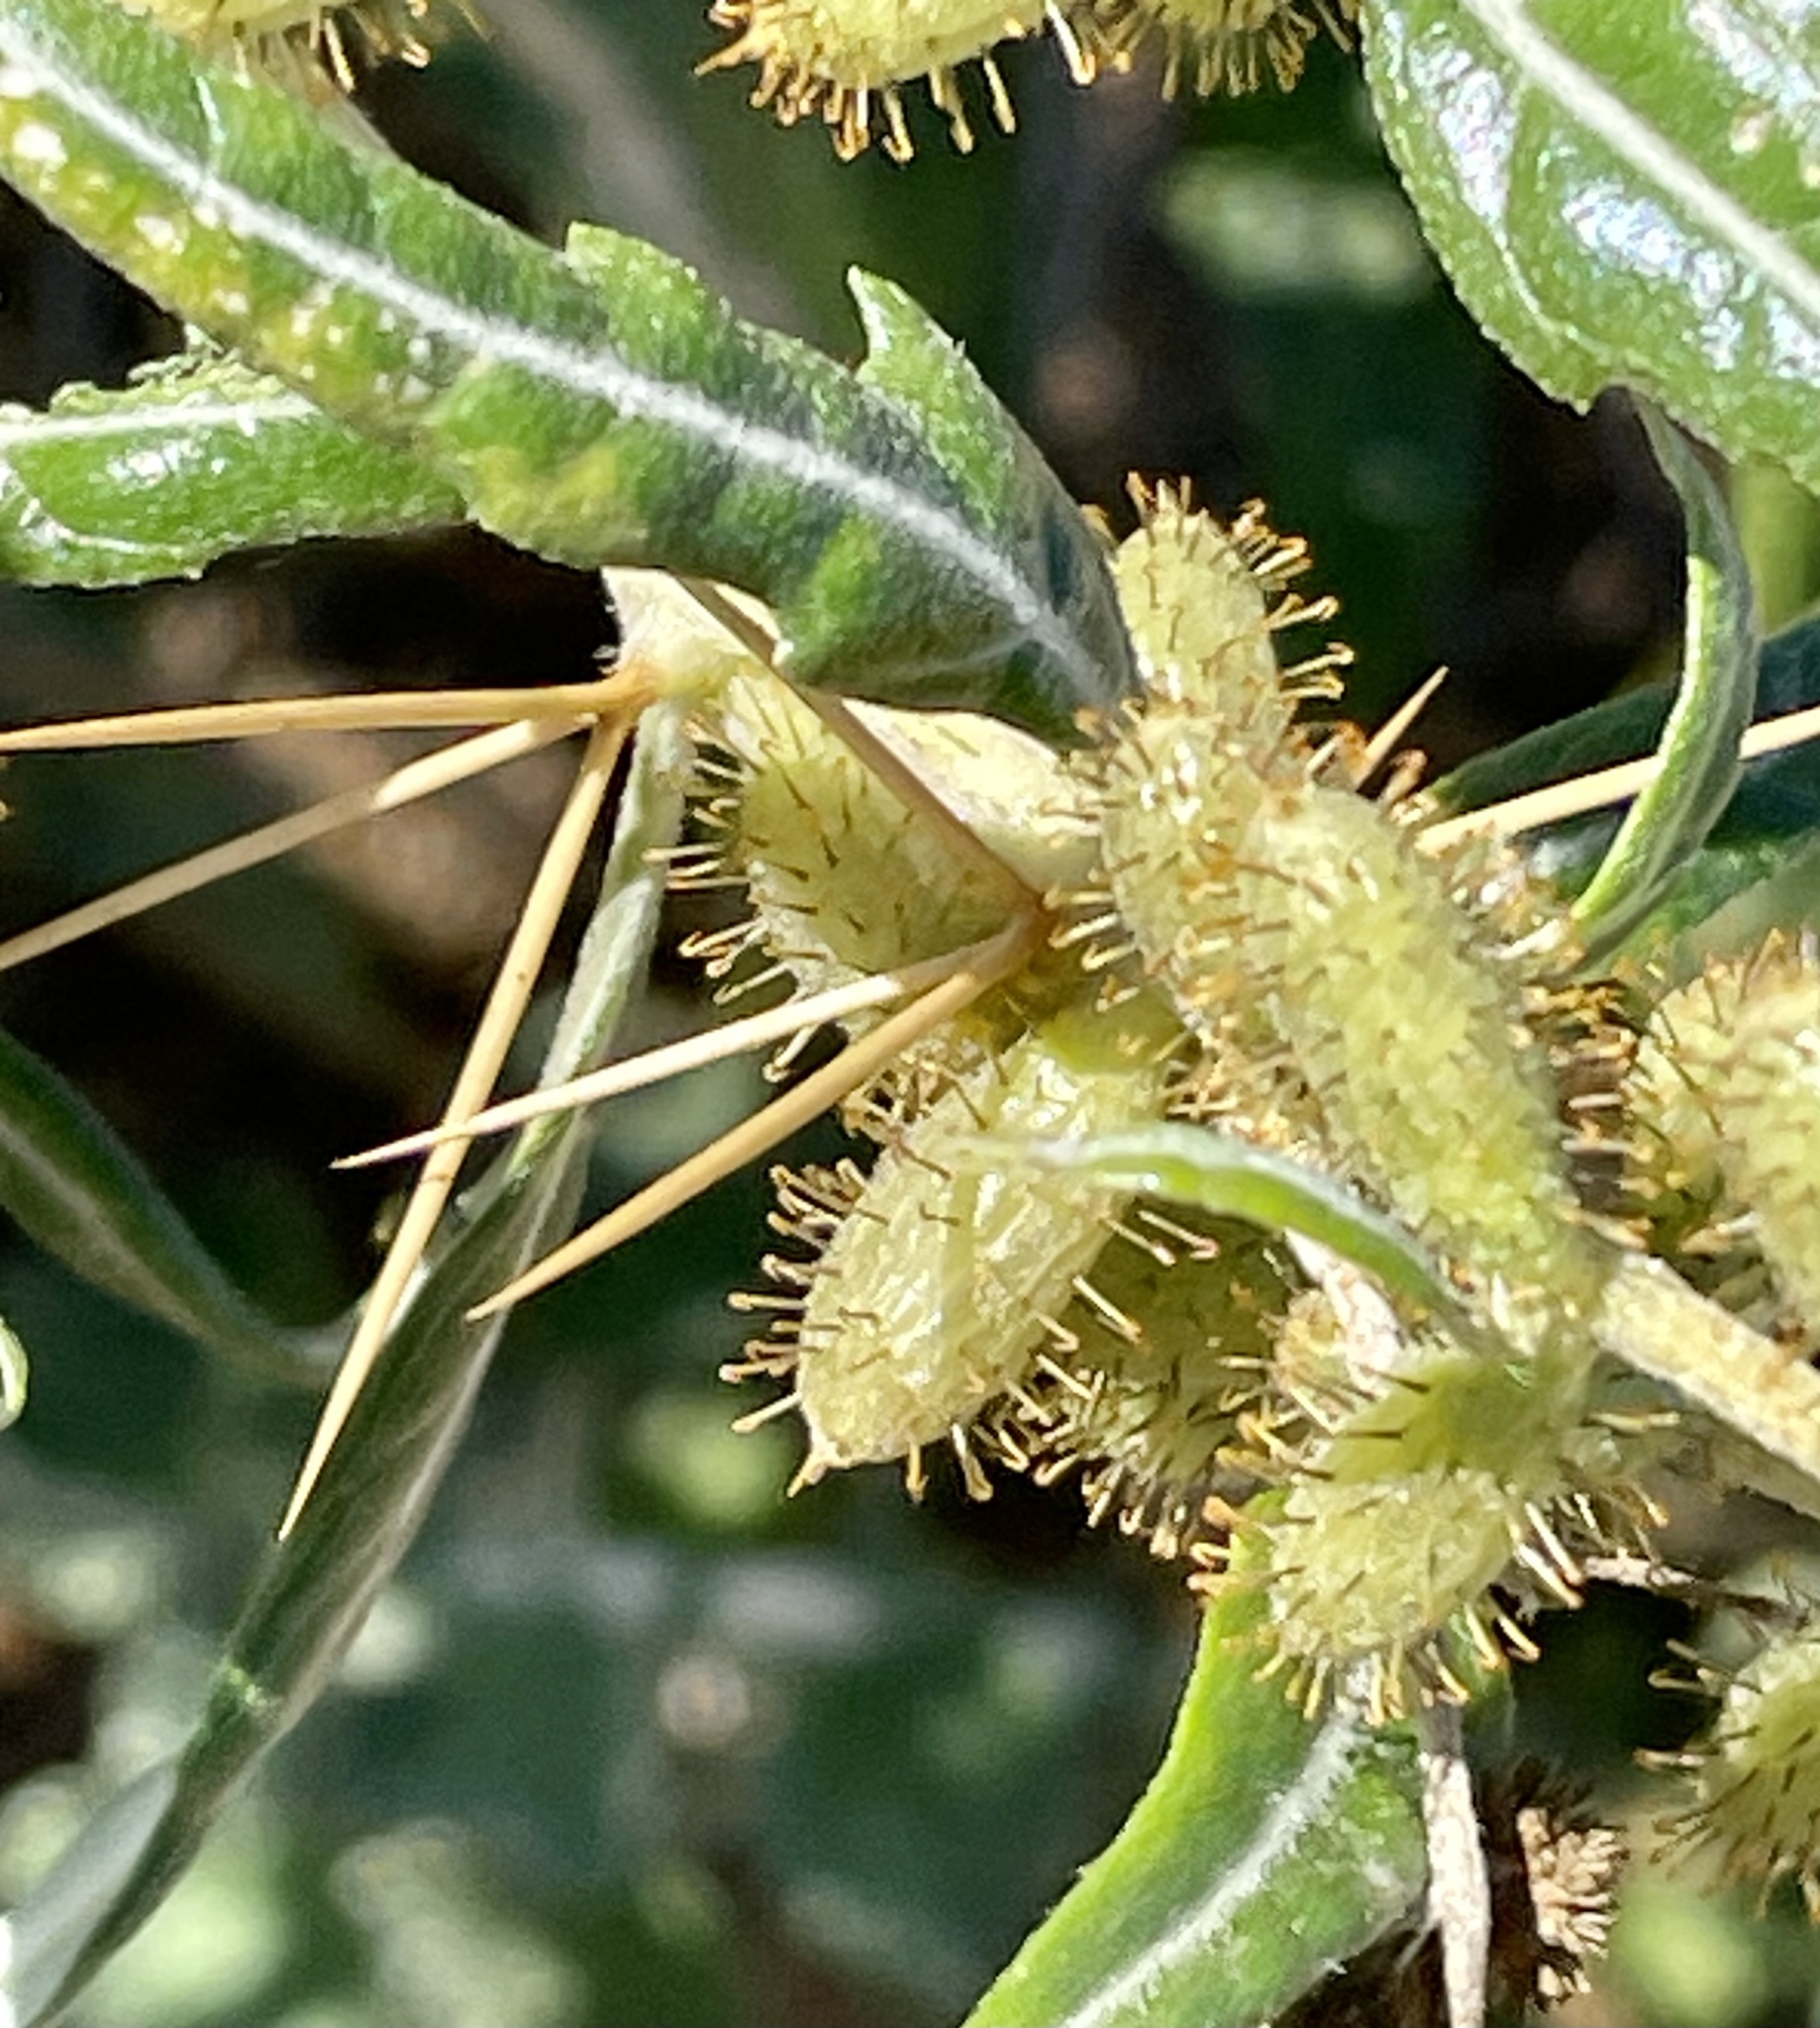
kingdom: Plantae
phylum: Tracheophyta
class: Magnoliopsida
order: Asterales
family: Asteraceae
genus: Xanthium
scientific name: Xanthium spinosum
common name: Spiny cocklebur
